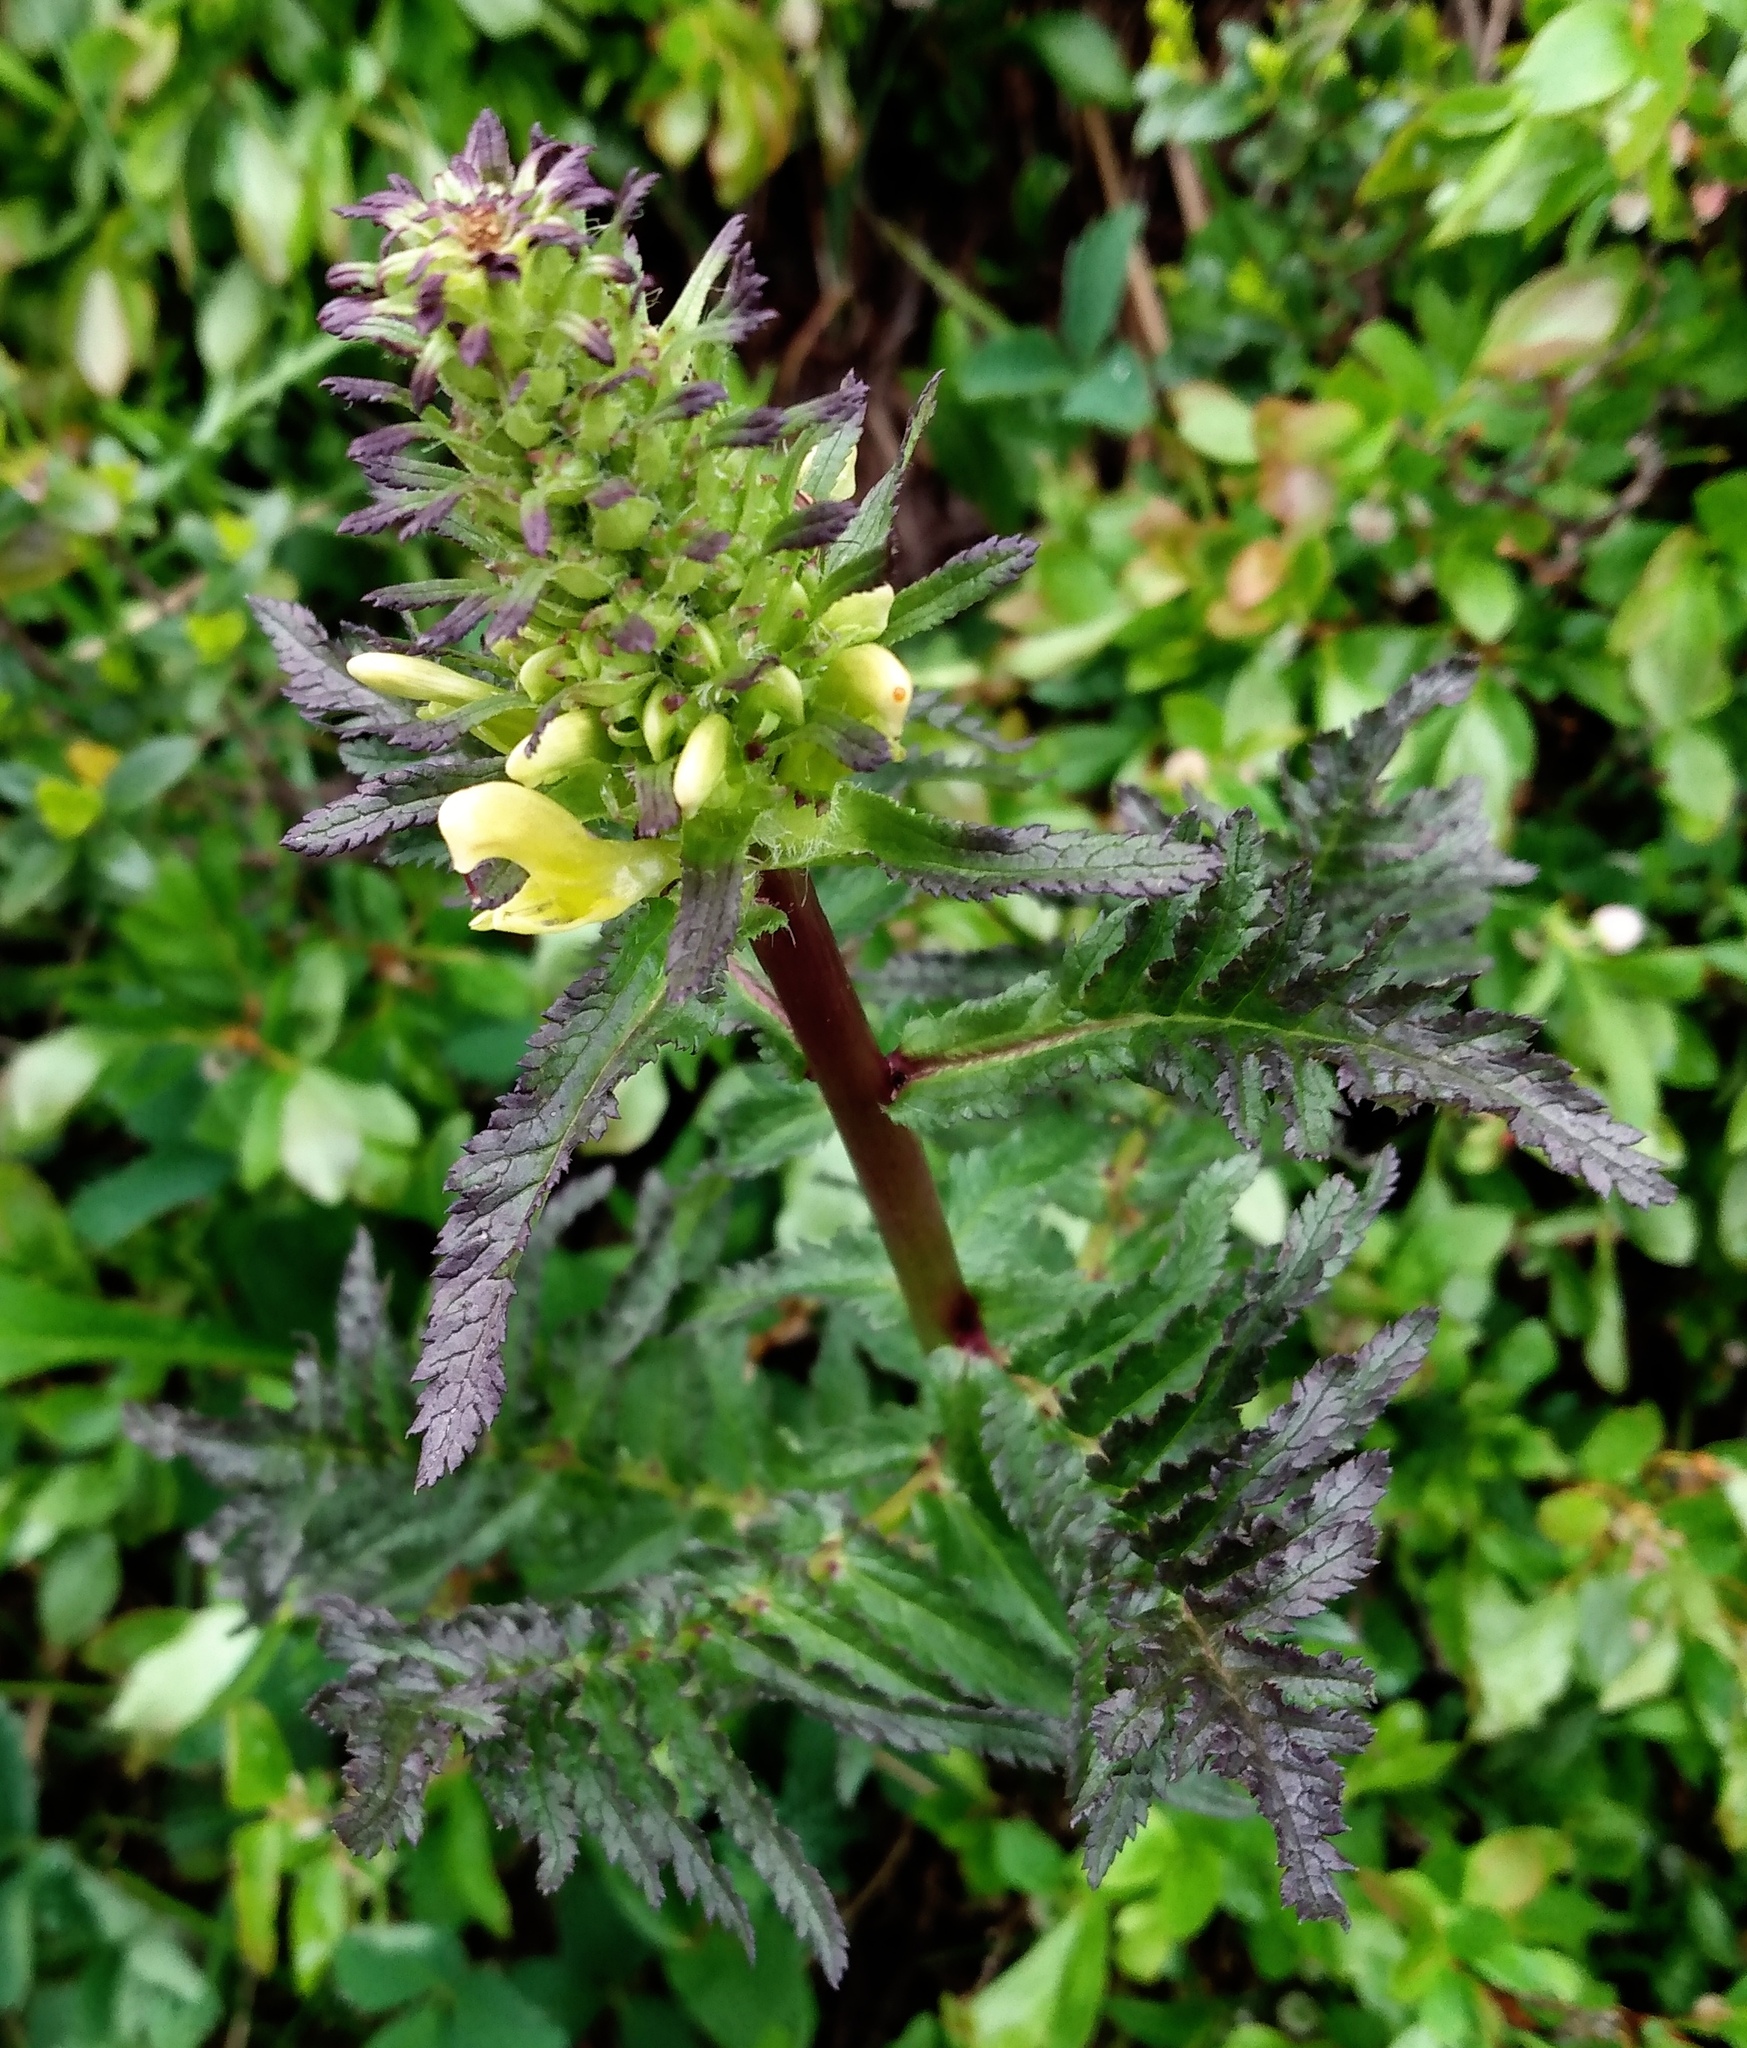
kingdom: Plantae
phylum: Tracheophyta
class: Magnoliopsida
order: Lamiales
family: Orobanchaceae
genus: Pedicularis
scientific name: Pedicularis bracteosa
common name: Bracted lousewort
